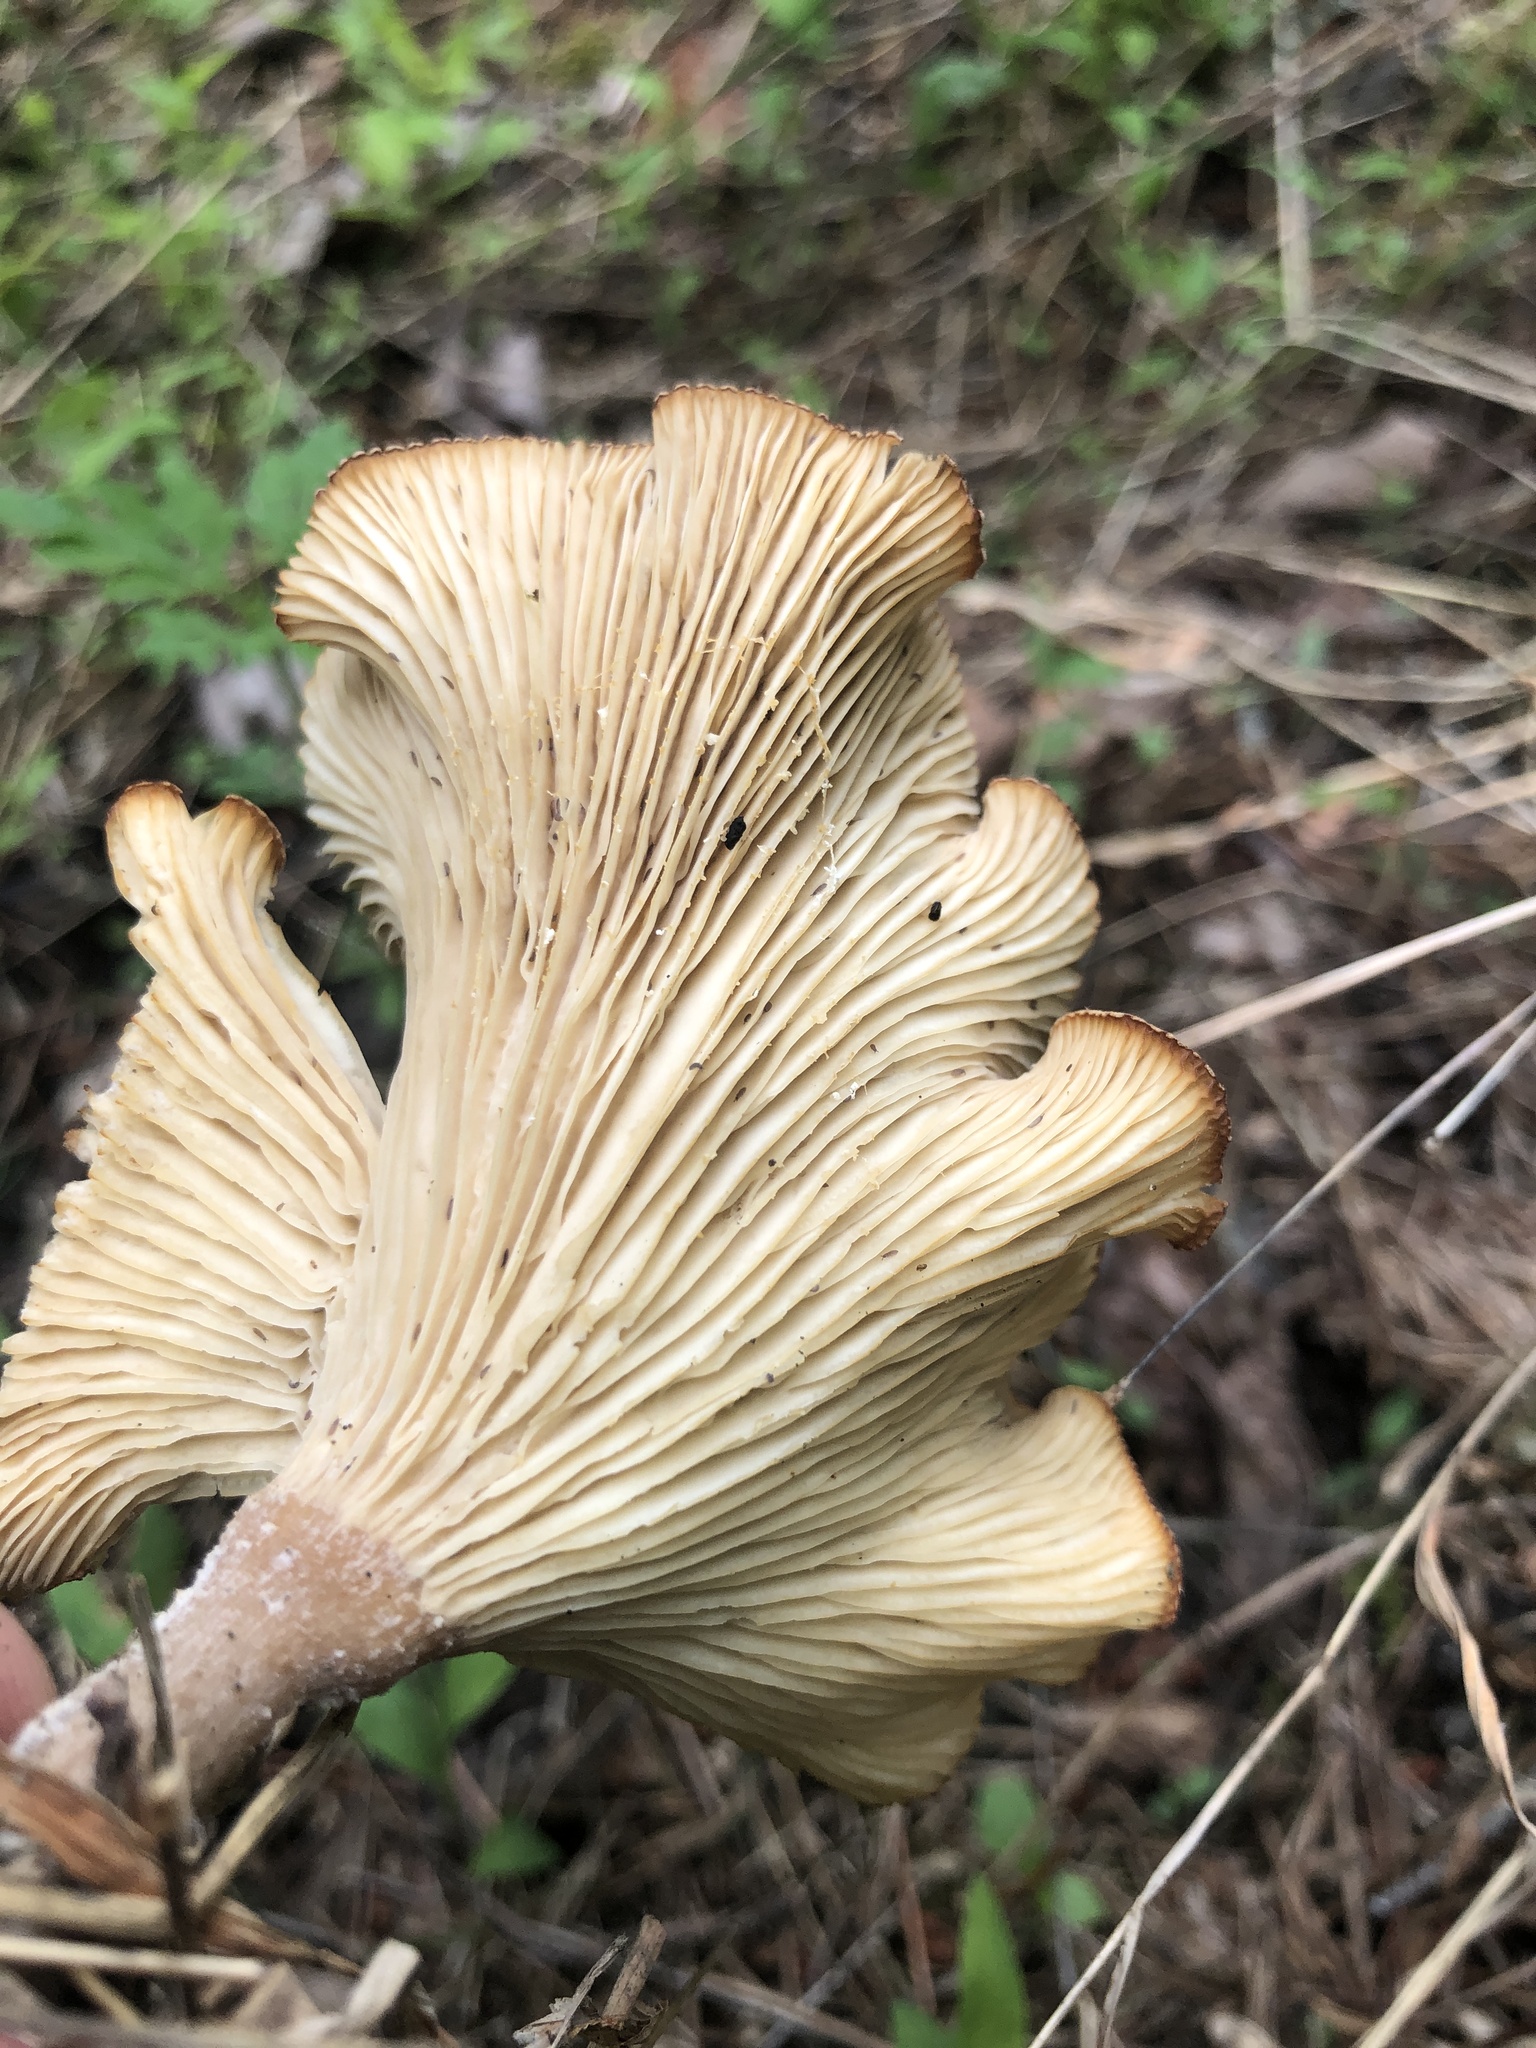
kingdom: Fungi
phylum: Basidiomycota
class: Agaricomycetes
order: Agaricales
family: Physalacriaceae
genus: Desarmillaria
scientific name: Desarmillaria caespitosa
